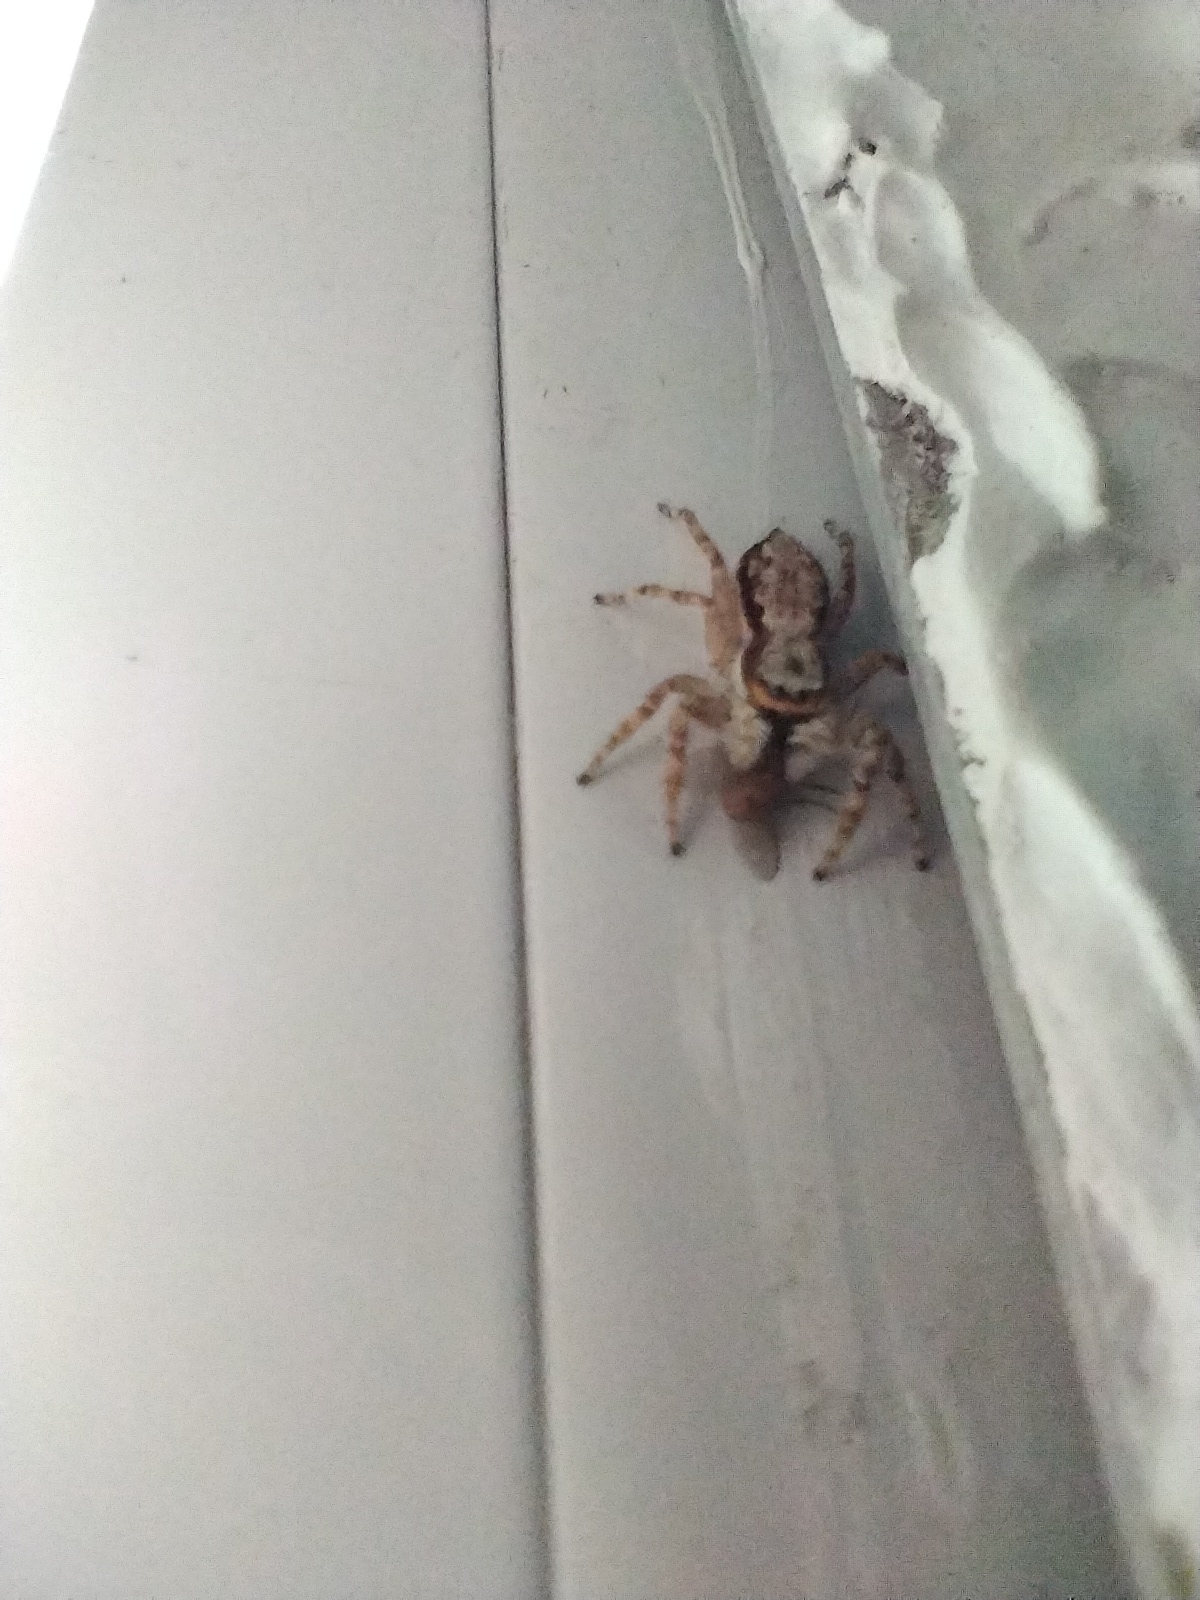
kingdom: Animalia
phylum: Arthropoda
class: Arachnida
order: Araneae
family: Salticidae
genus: Menemerus
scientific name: Menemerus bivittatus
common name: Gray wall jumper
